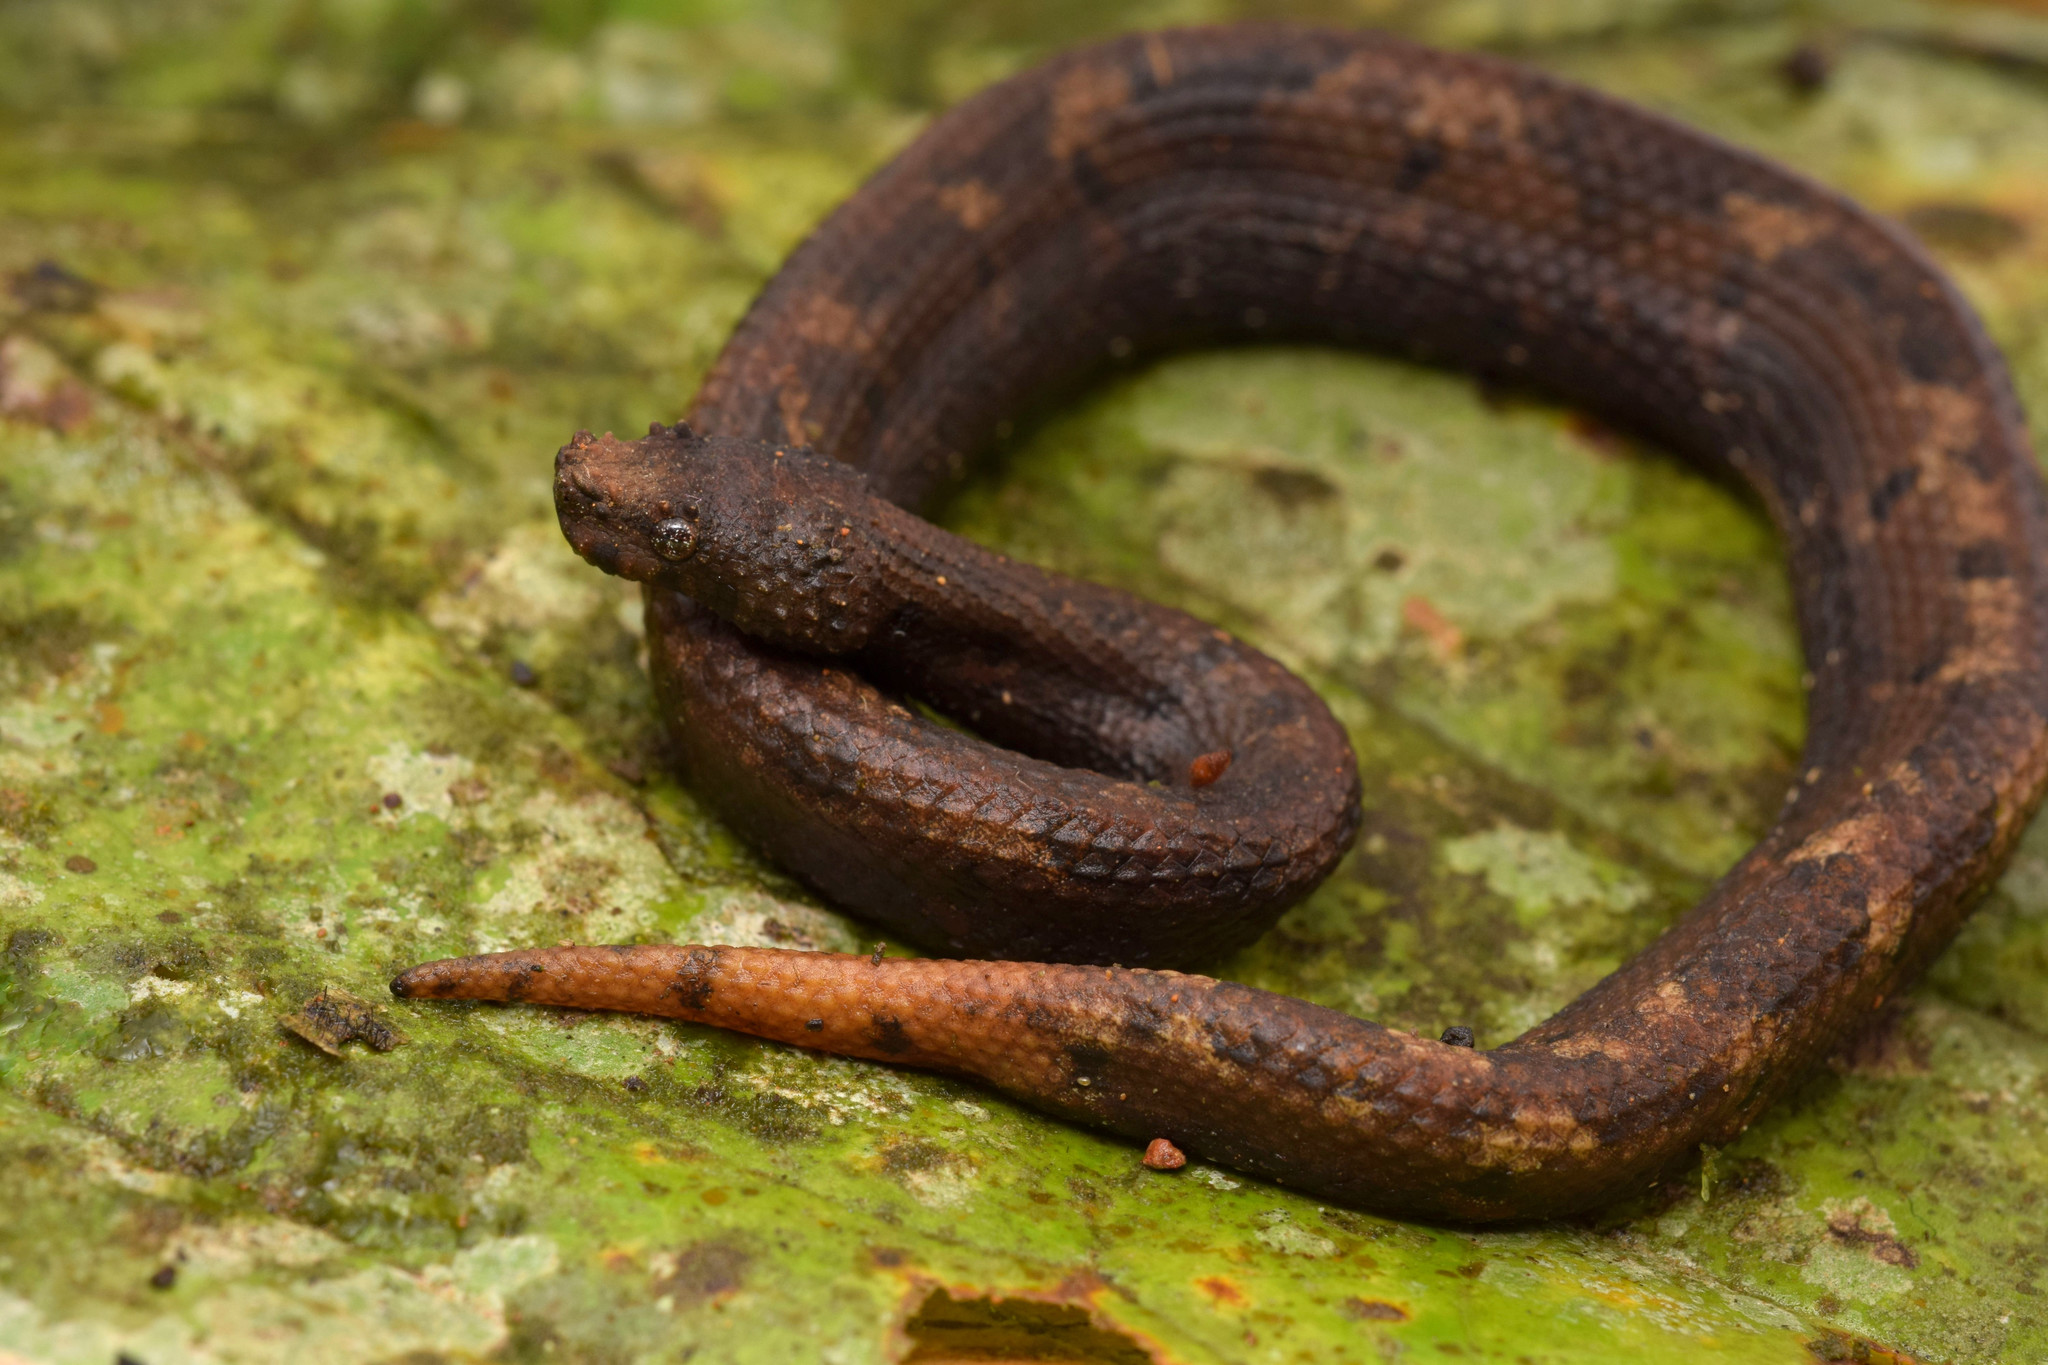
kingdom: Animalia
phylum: Chordata
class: Squamata
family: Tropidophiidae
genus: Trachyboa
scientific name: Trachyboa boulengeri
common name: Northern eyelash boa
